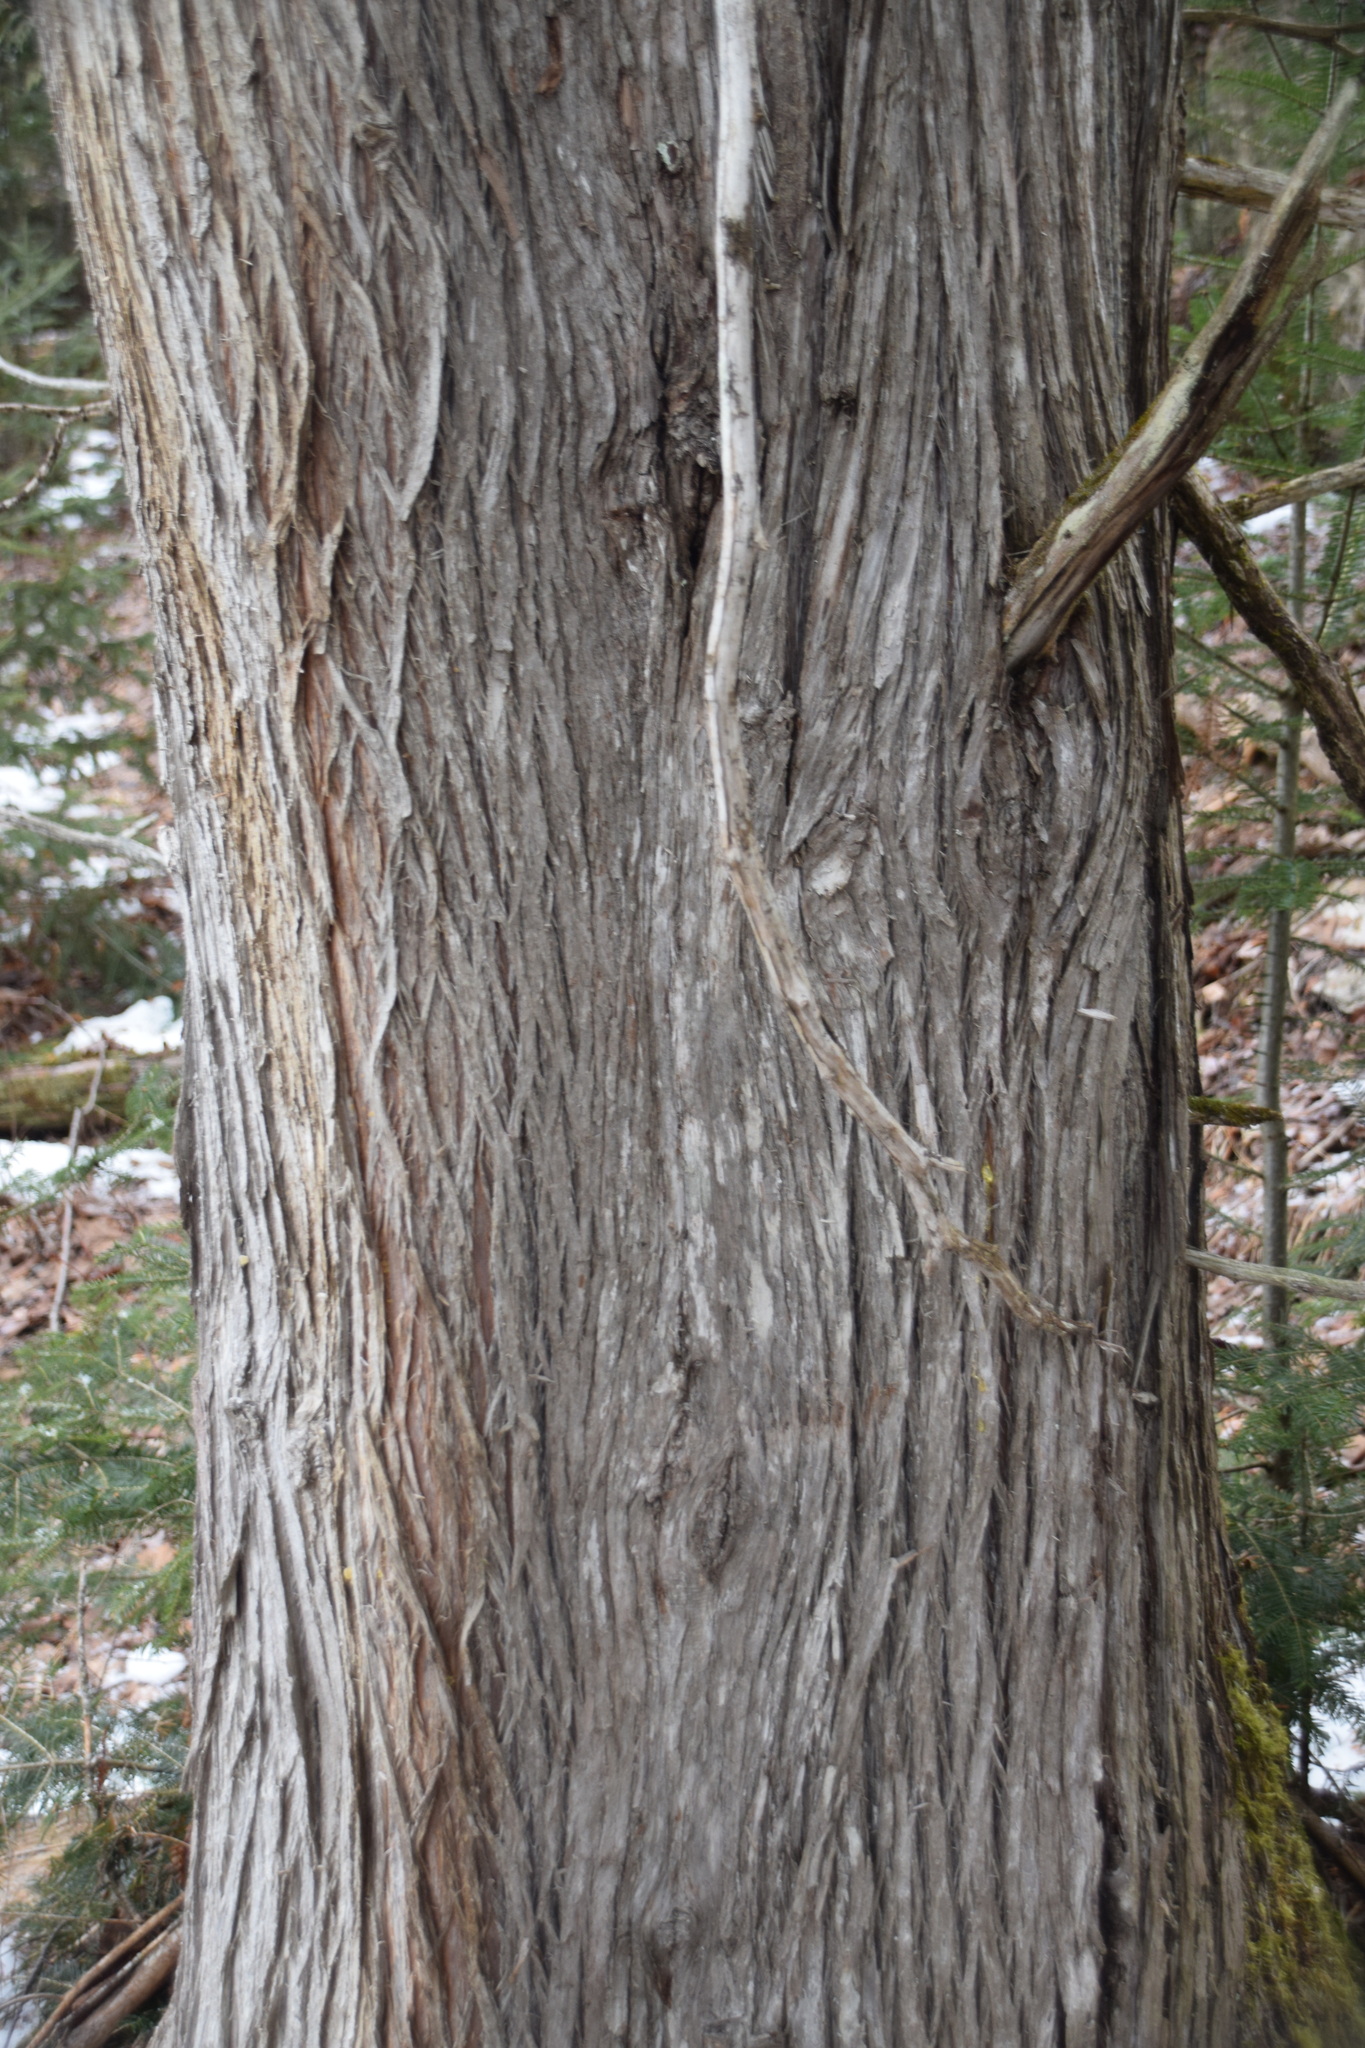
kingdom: Plantae
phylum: Tracheophyta
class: Pinopsida
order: Pinales
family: Cupressaceae
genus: Thuja
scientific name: Thuja occidentalis
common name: Northern white-cedar
